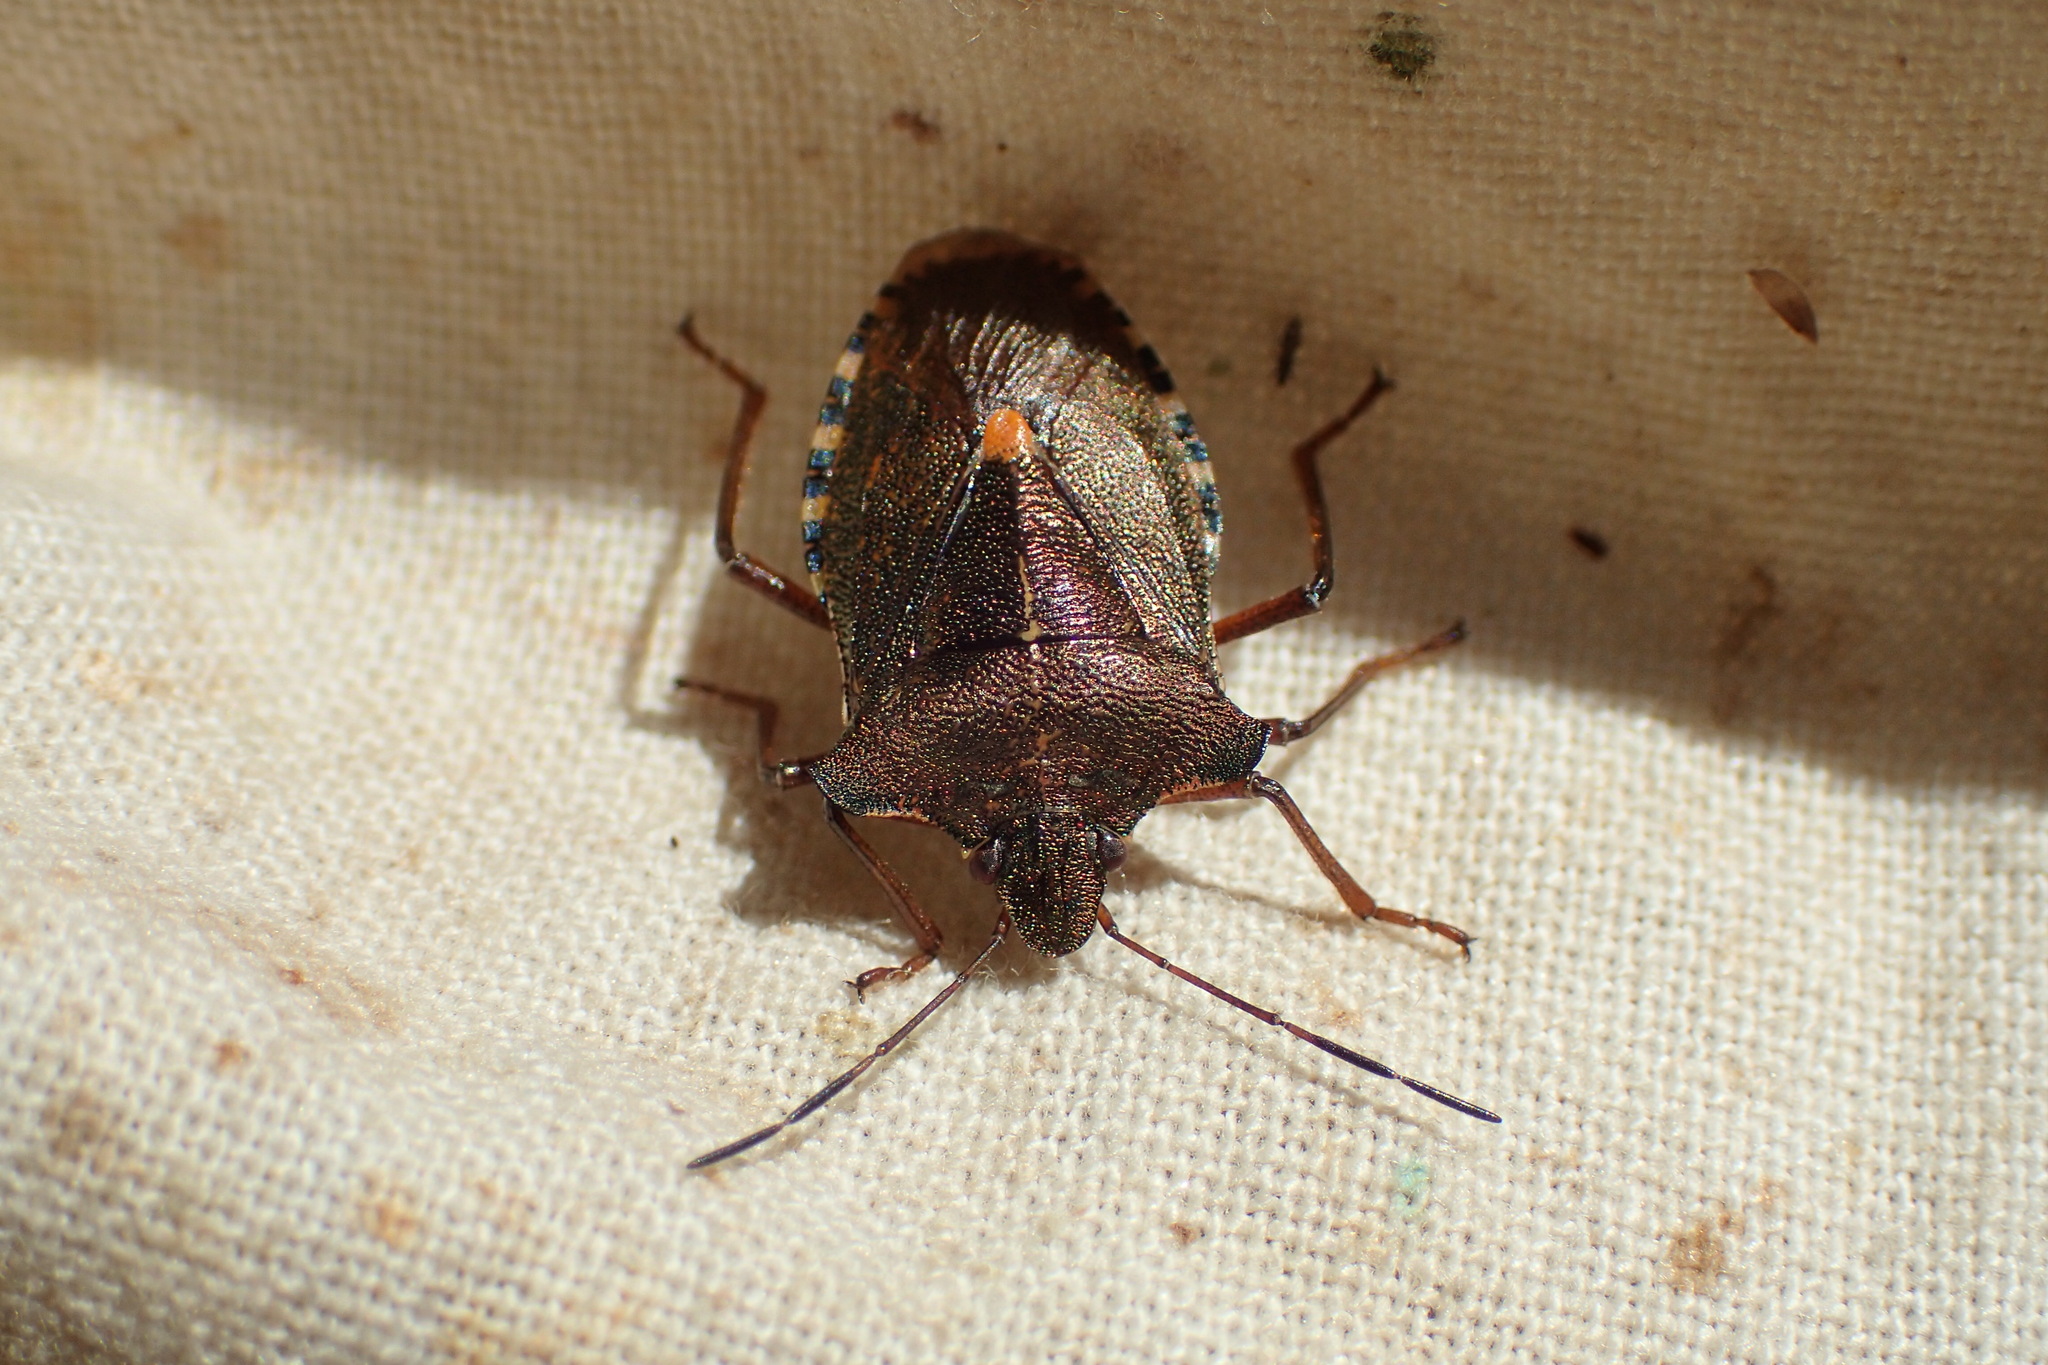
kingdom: Animalia
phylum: Arthropoda
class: Insecta
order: Hemiptera
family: Pentatomidae
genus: Pentatoma
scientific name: Pentatoma rufipes
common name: Forest bug
